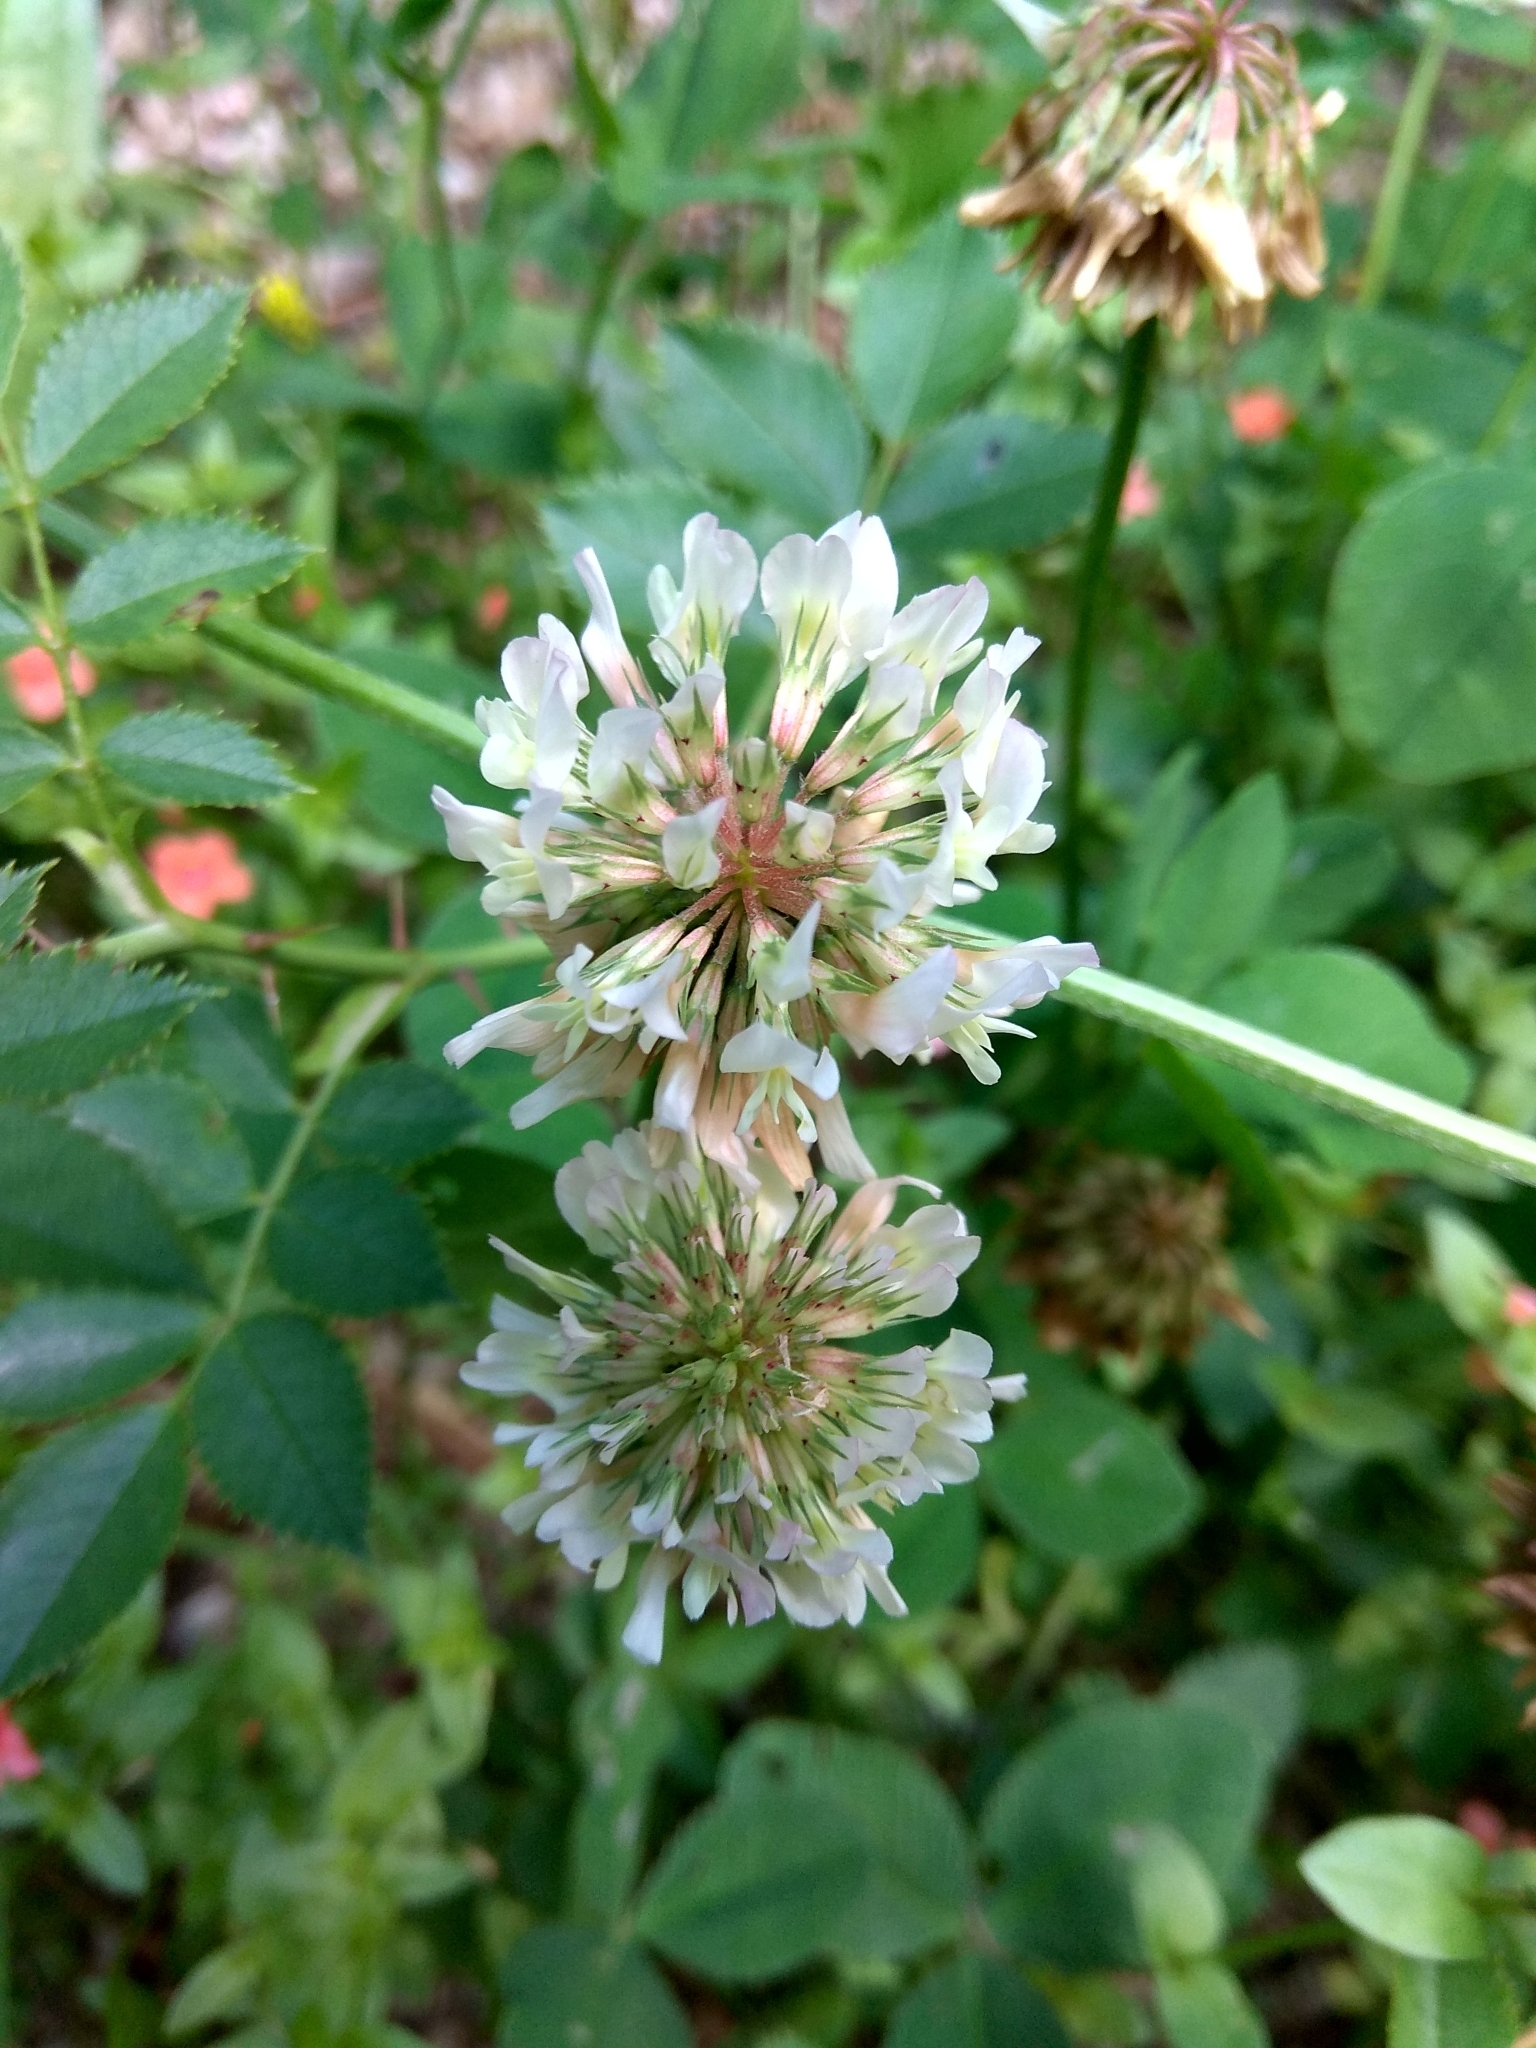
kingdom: Plantae
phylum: Tracheophyta
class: Magnoliopsida
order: Fabales
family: Fabaceae
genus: Trifolium
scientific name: Trifolium repens
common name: White clover
